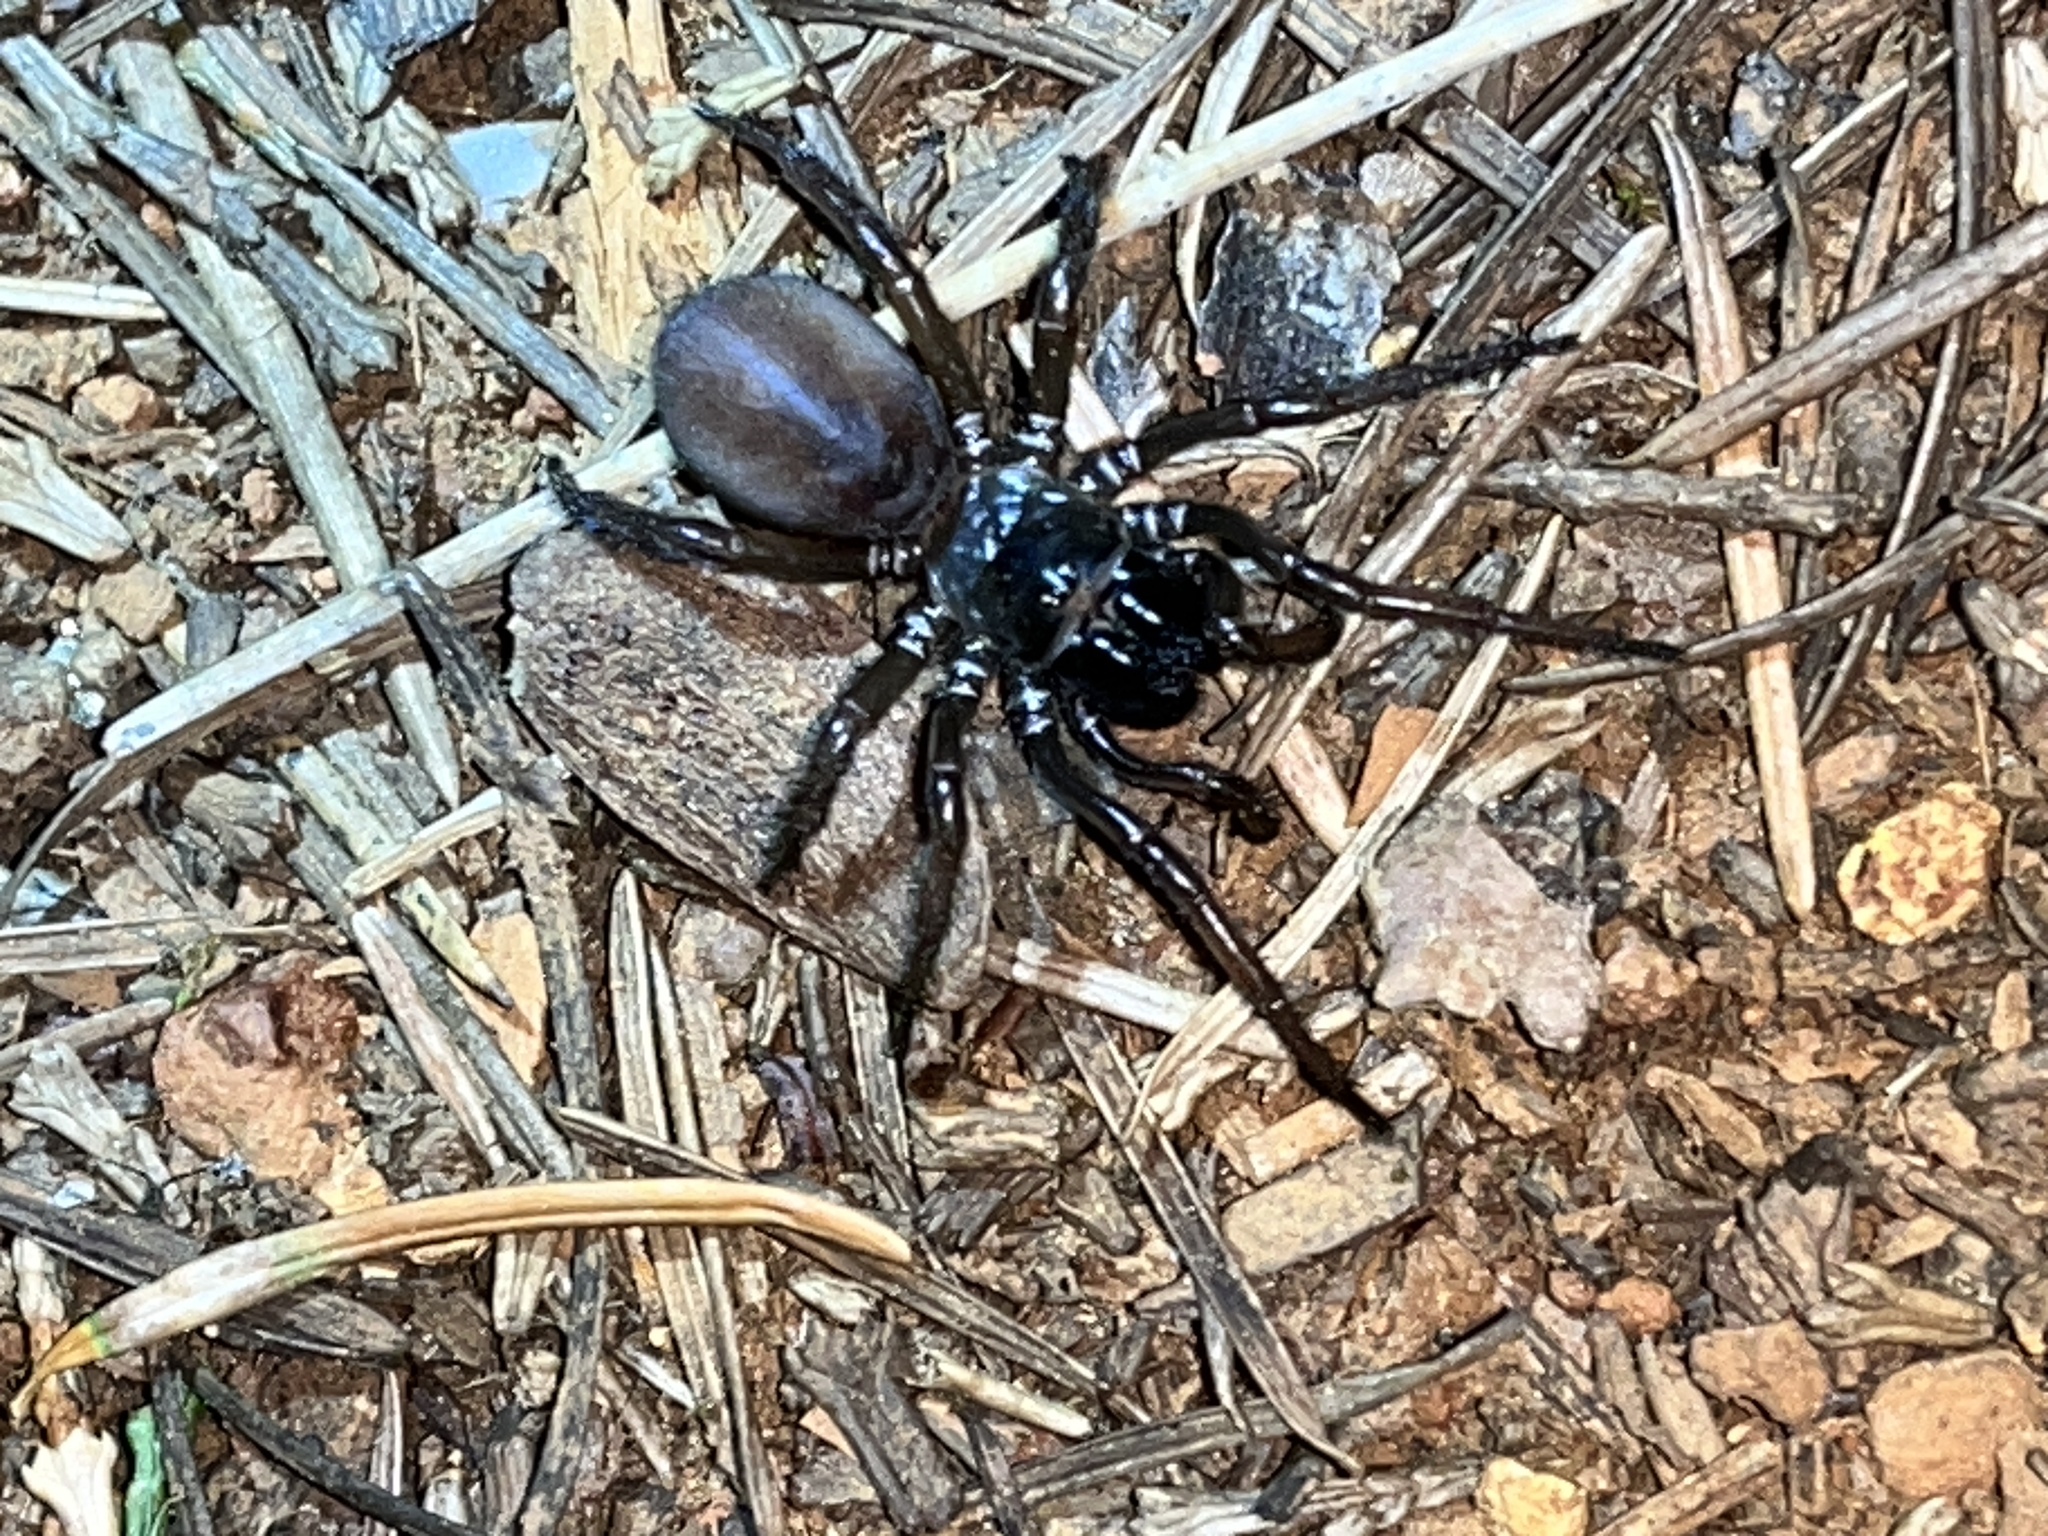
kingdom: Animalia
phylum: Arthropoda
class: Arachnida
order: Araneae
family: Antrodiaetidae
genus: Atypoides
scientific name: Atypoides riversi
